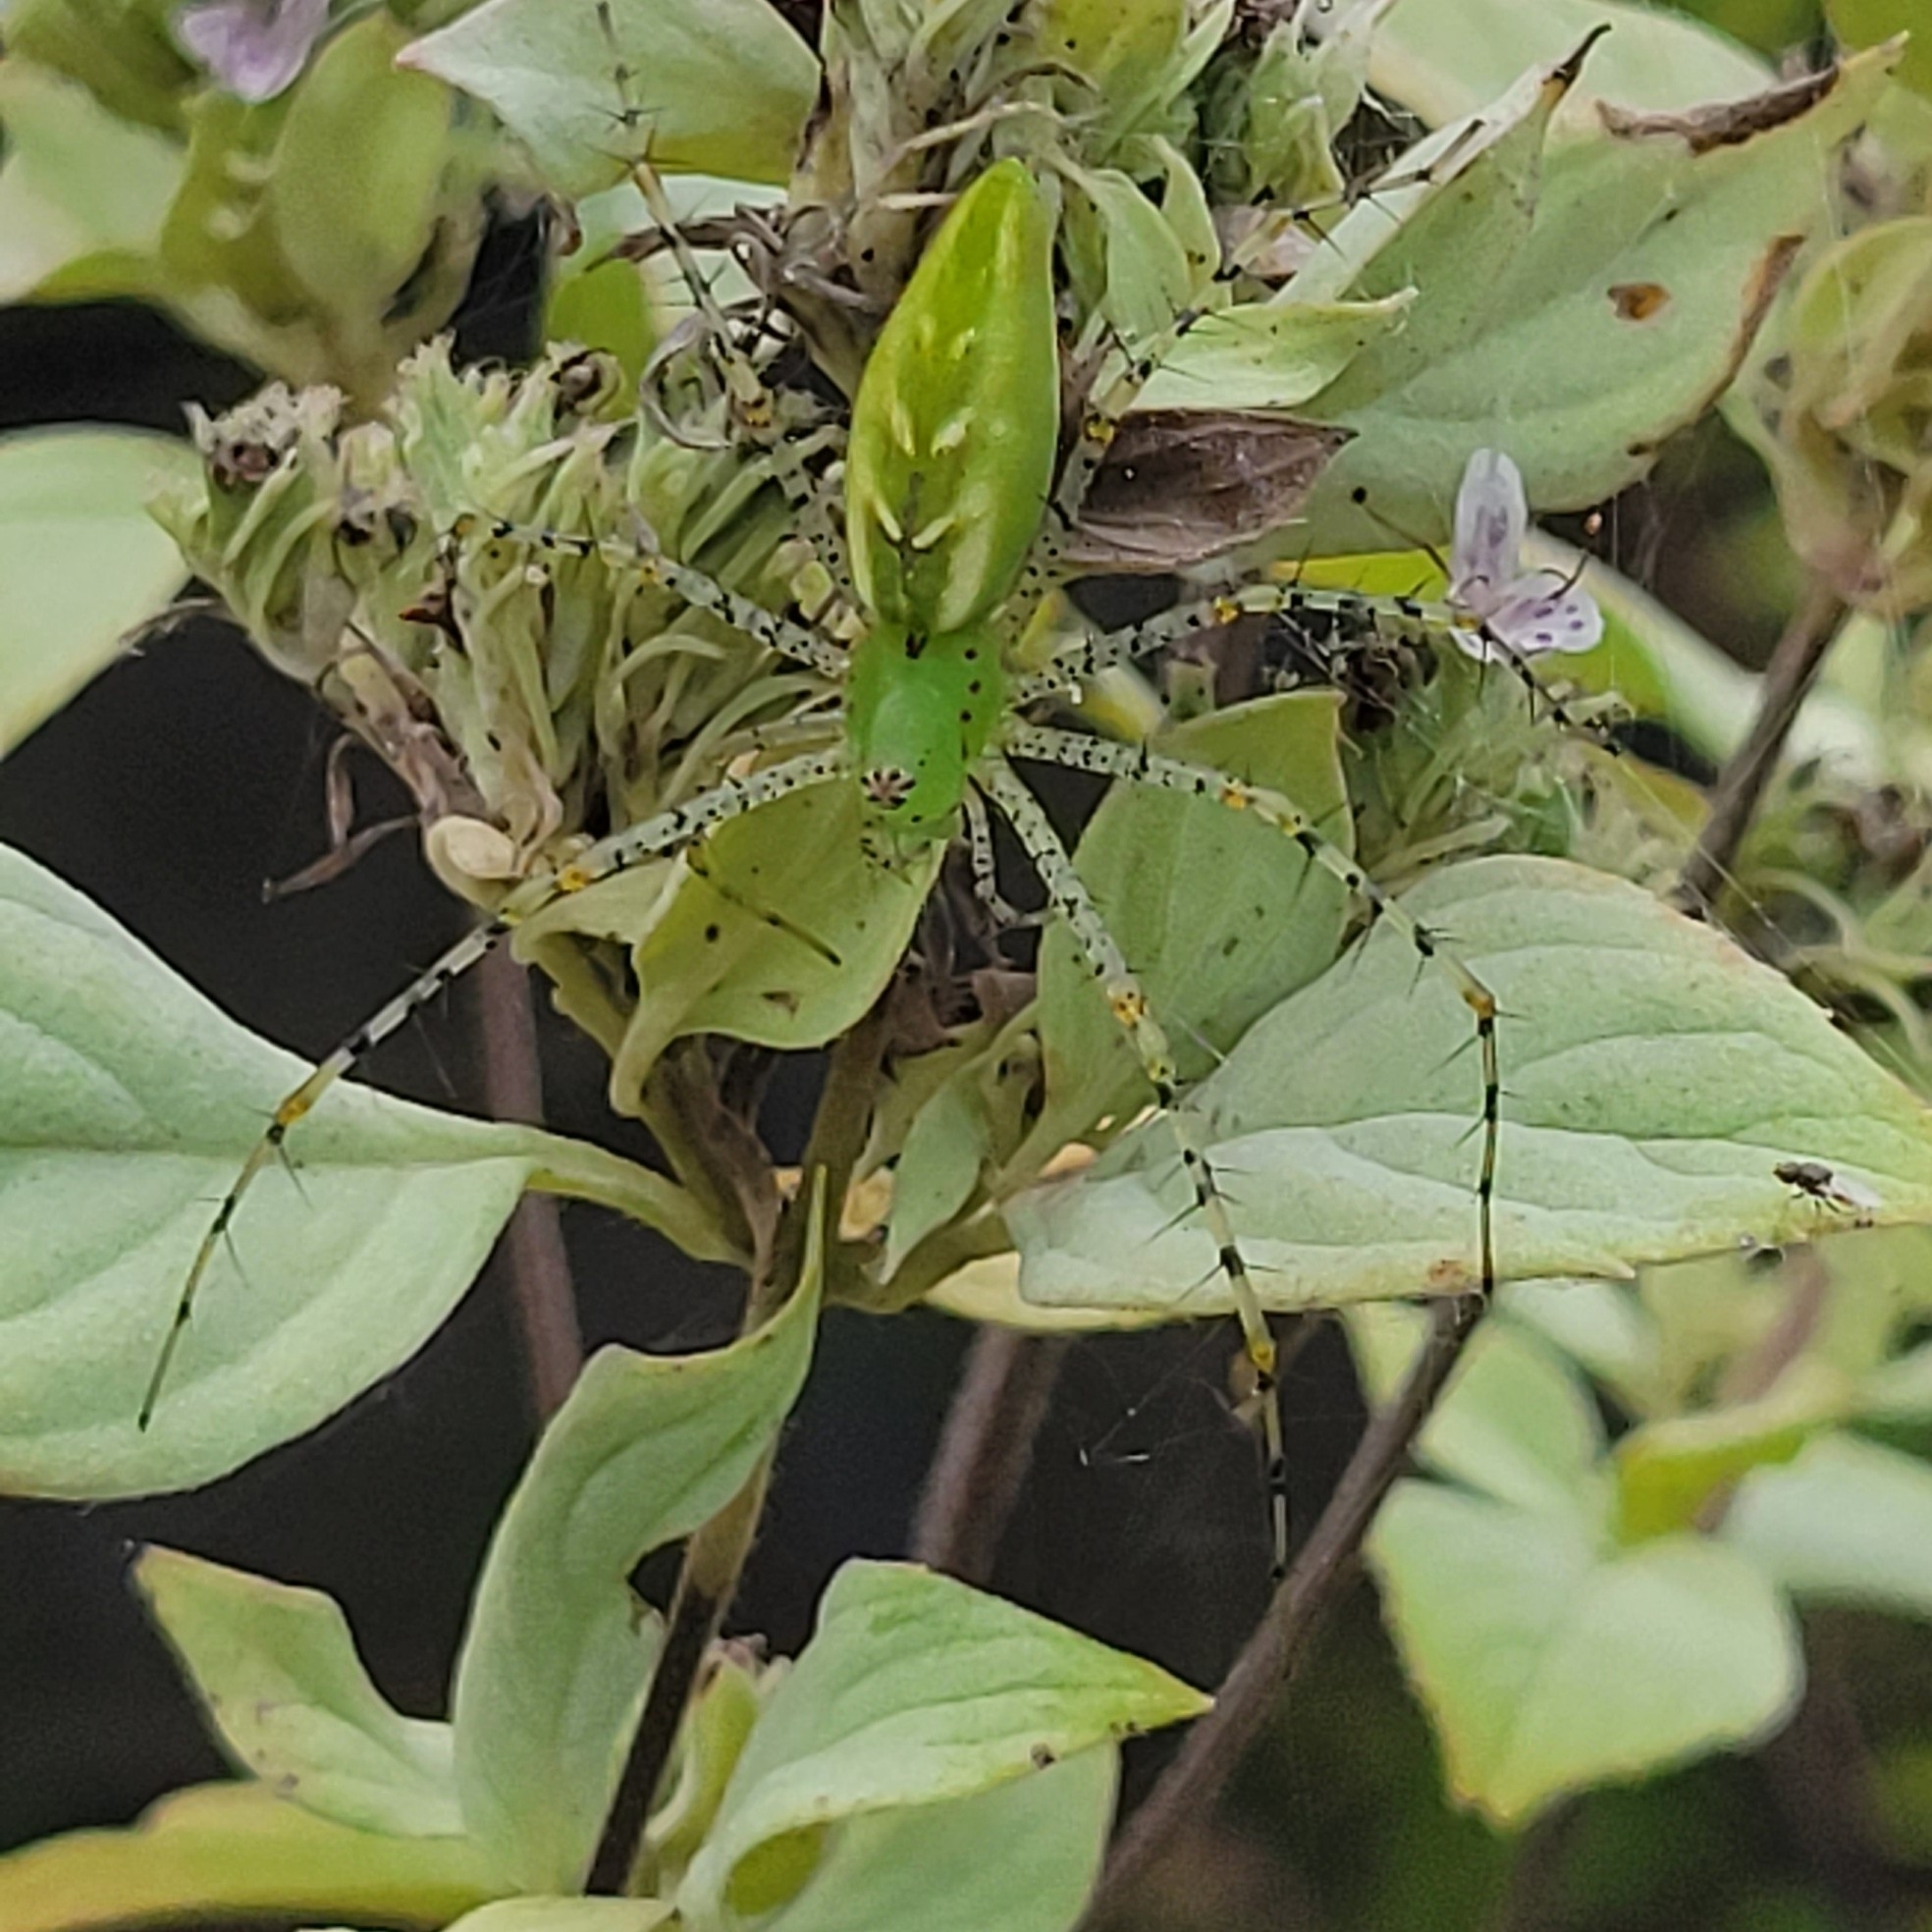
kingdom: Animalia
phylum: Arthropoda
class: Arachnida
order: Araneae
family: Oxyopidae
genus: Peucetia
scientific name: Peucetia viridans
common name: Lynx spiders
